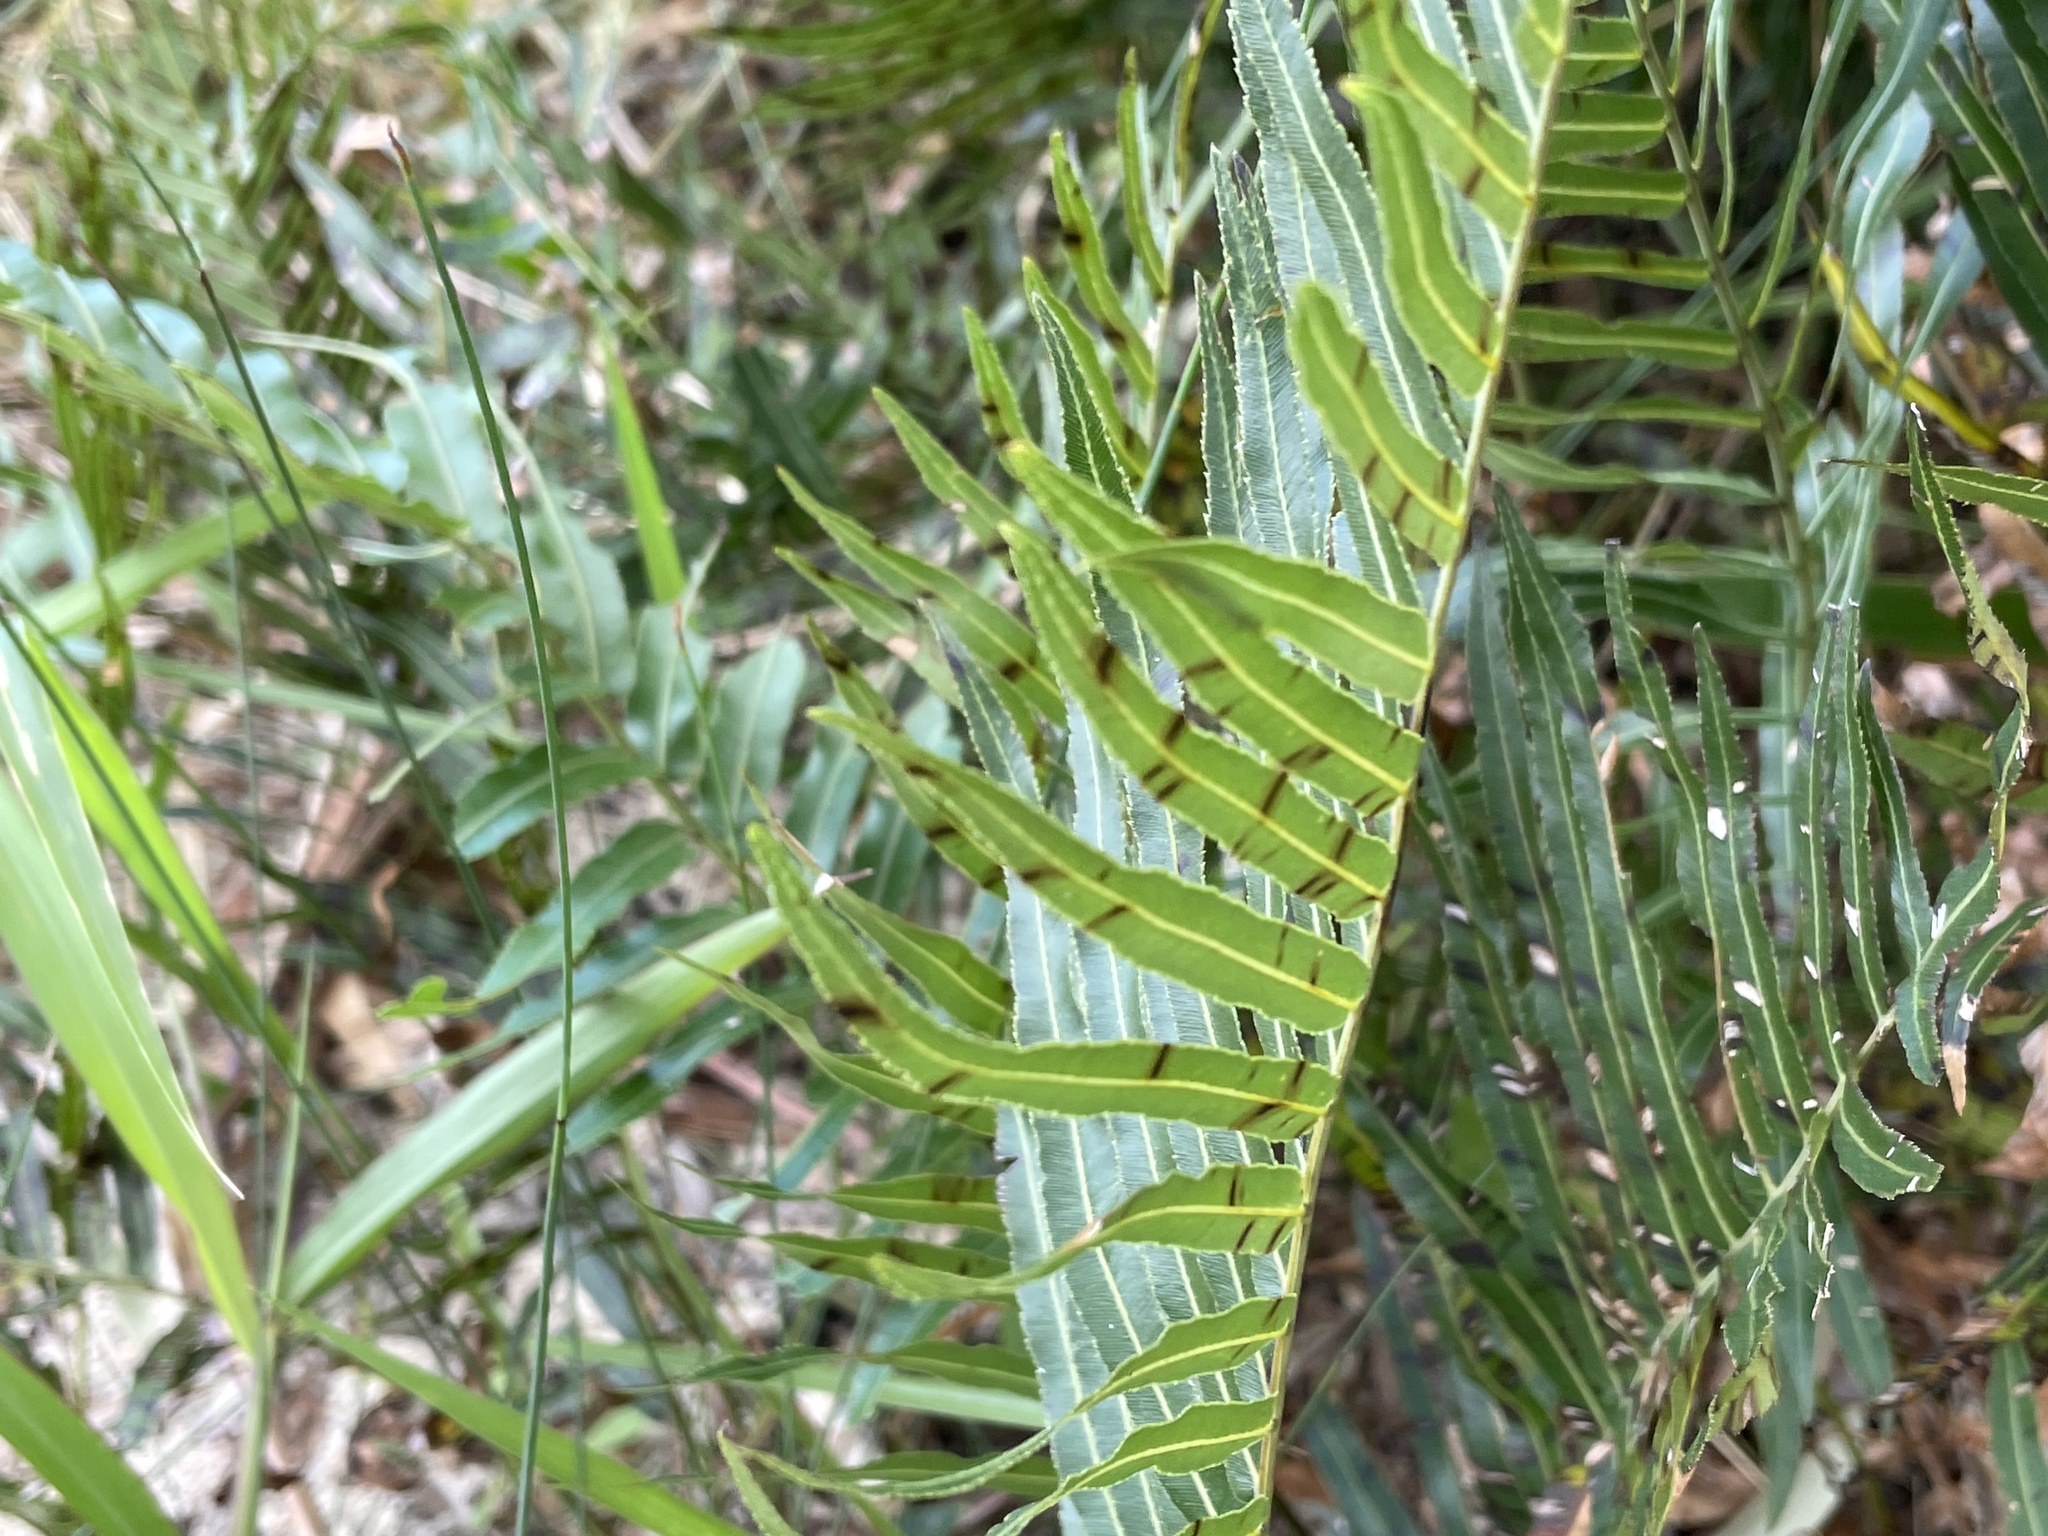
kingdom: Plantae
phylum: Tracheophyta
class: Polypodiopsida
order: Polypodiales
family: Blechnaceae
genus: Telmatoblechnum
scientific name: Telmatoblechnum indicum
